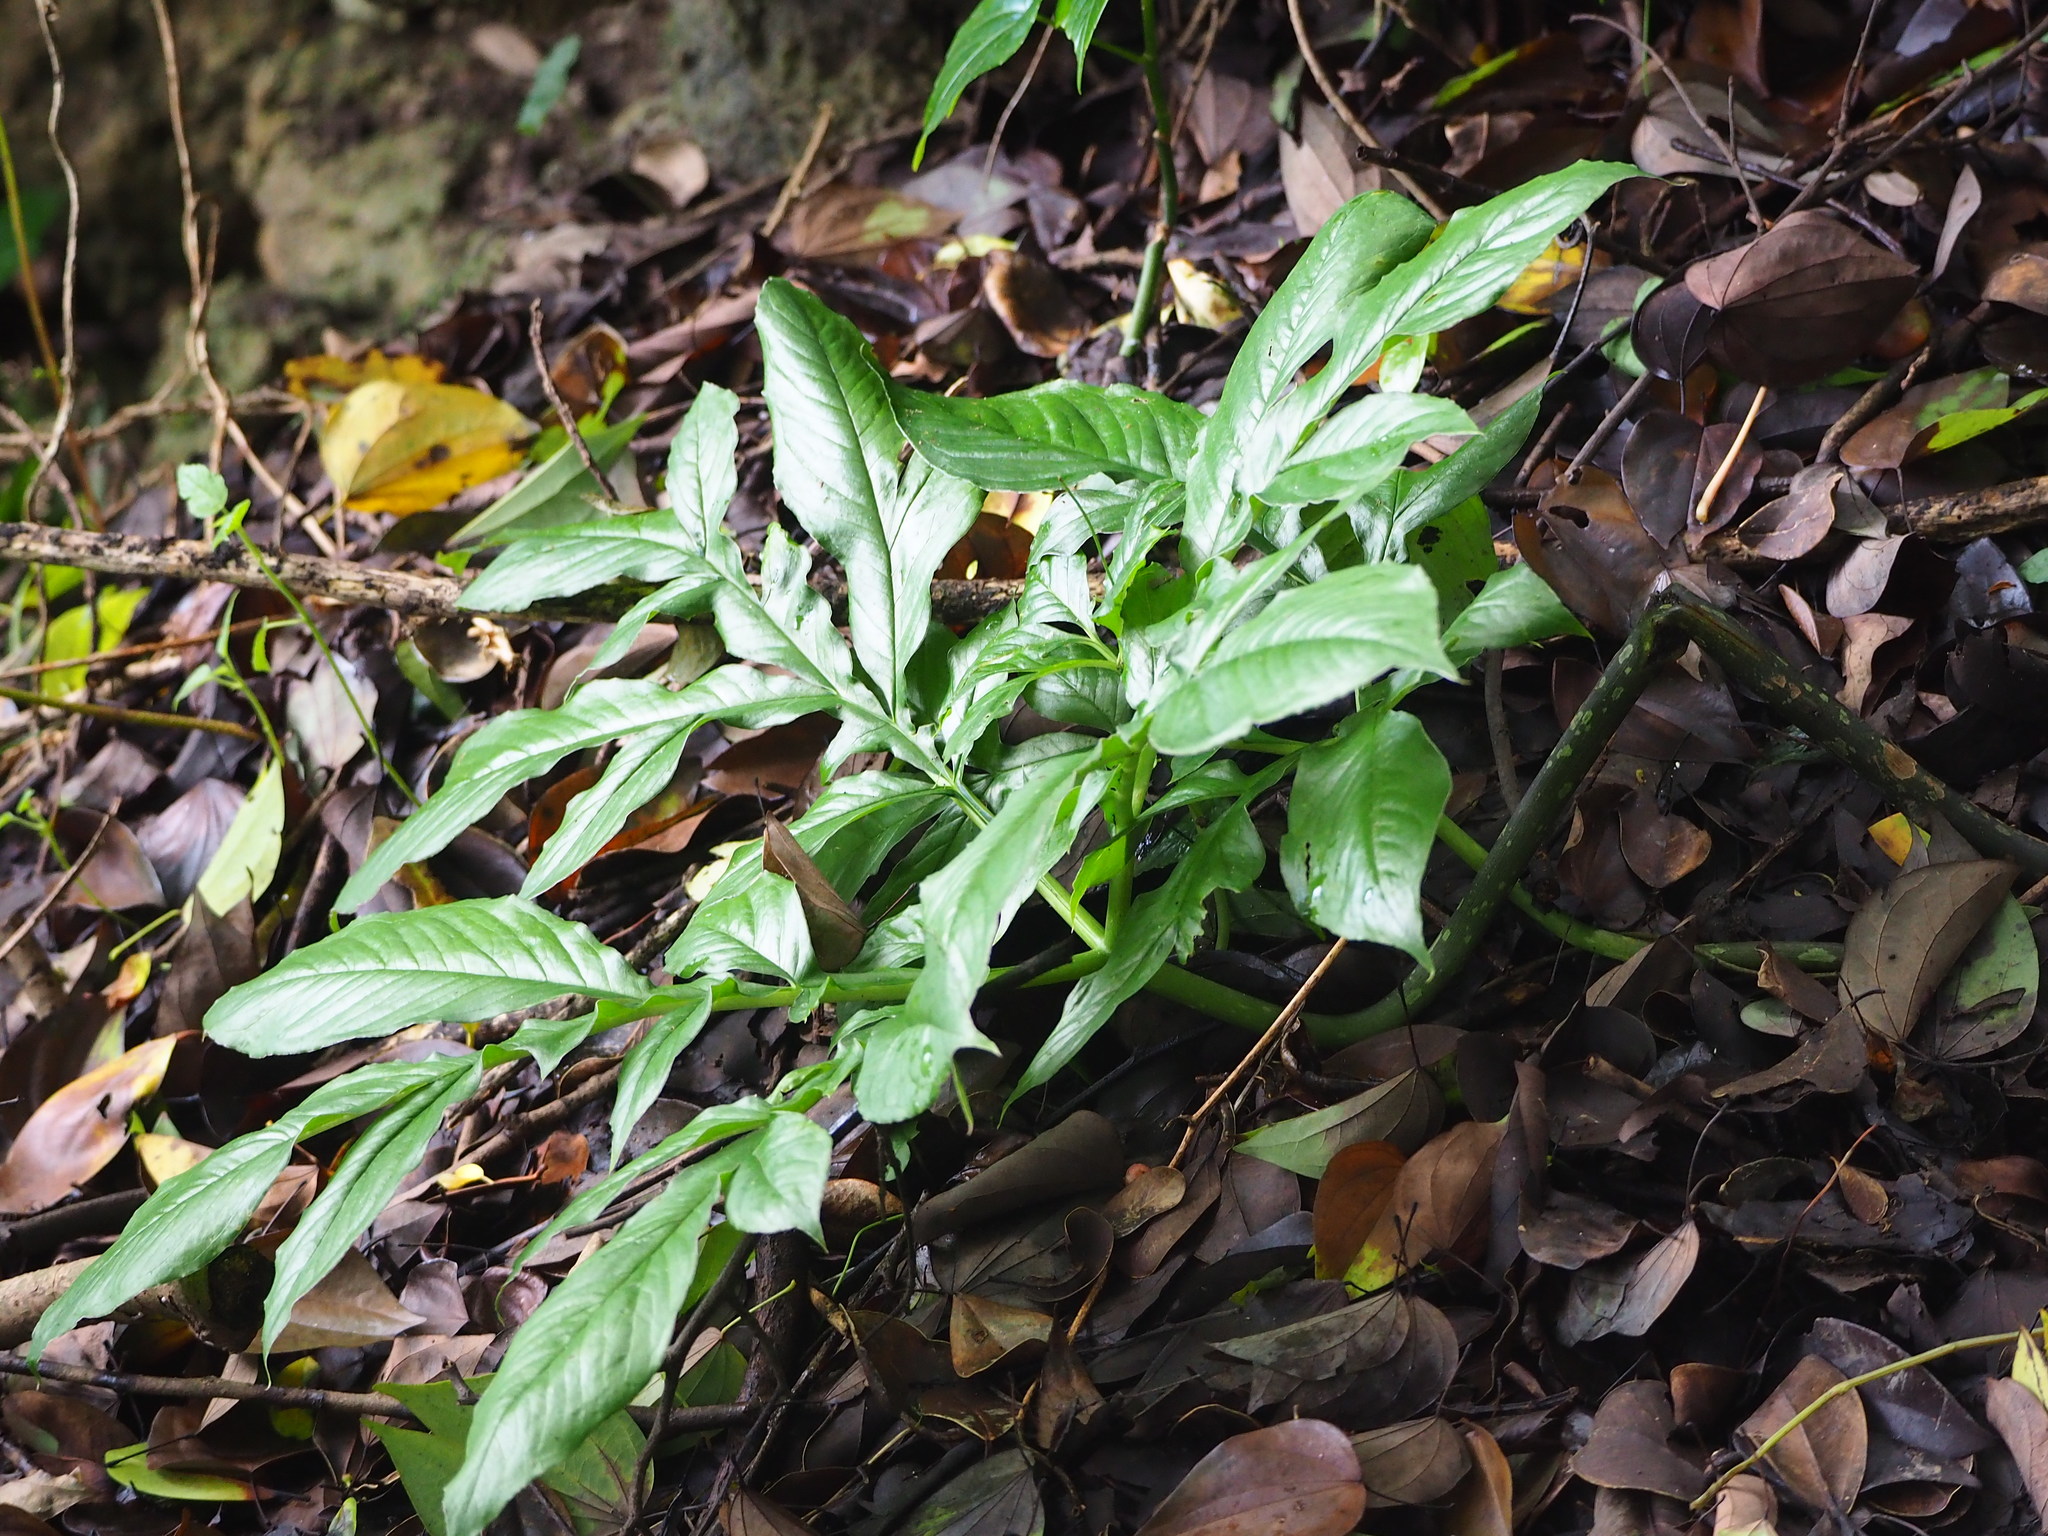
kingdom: Plantae
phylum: Tracheophyta
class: Liliopsida
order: Alismatales
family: Araceae
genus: Amorphophallus
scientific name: Amorphophallus henryi
